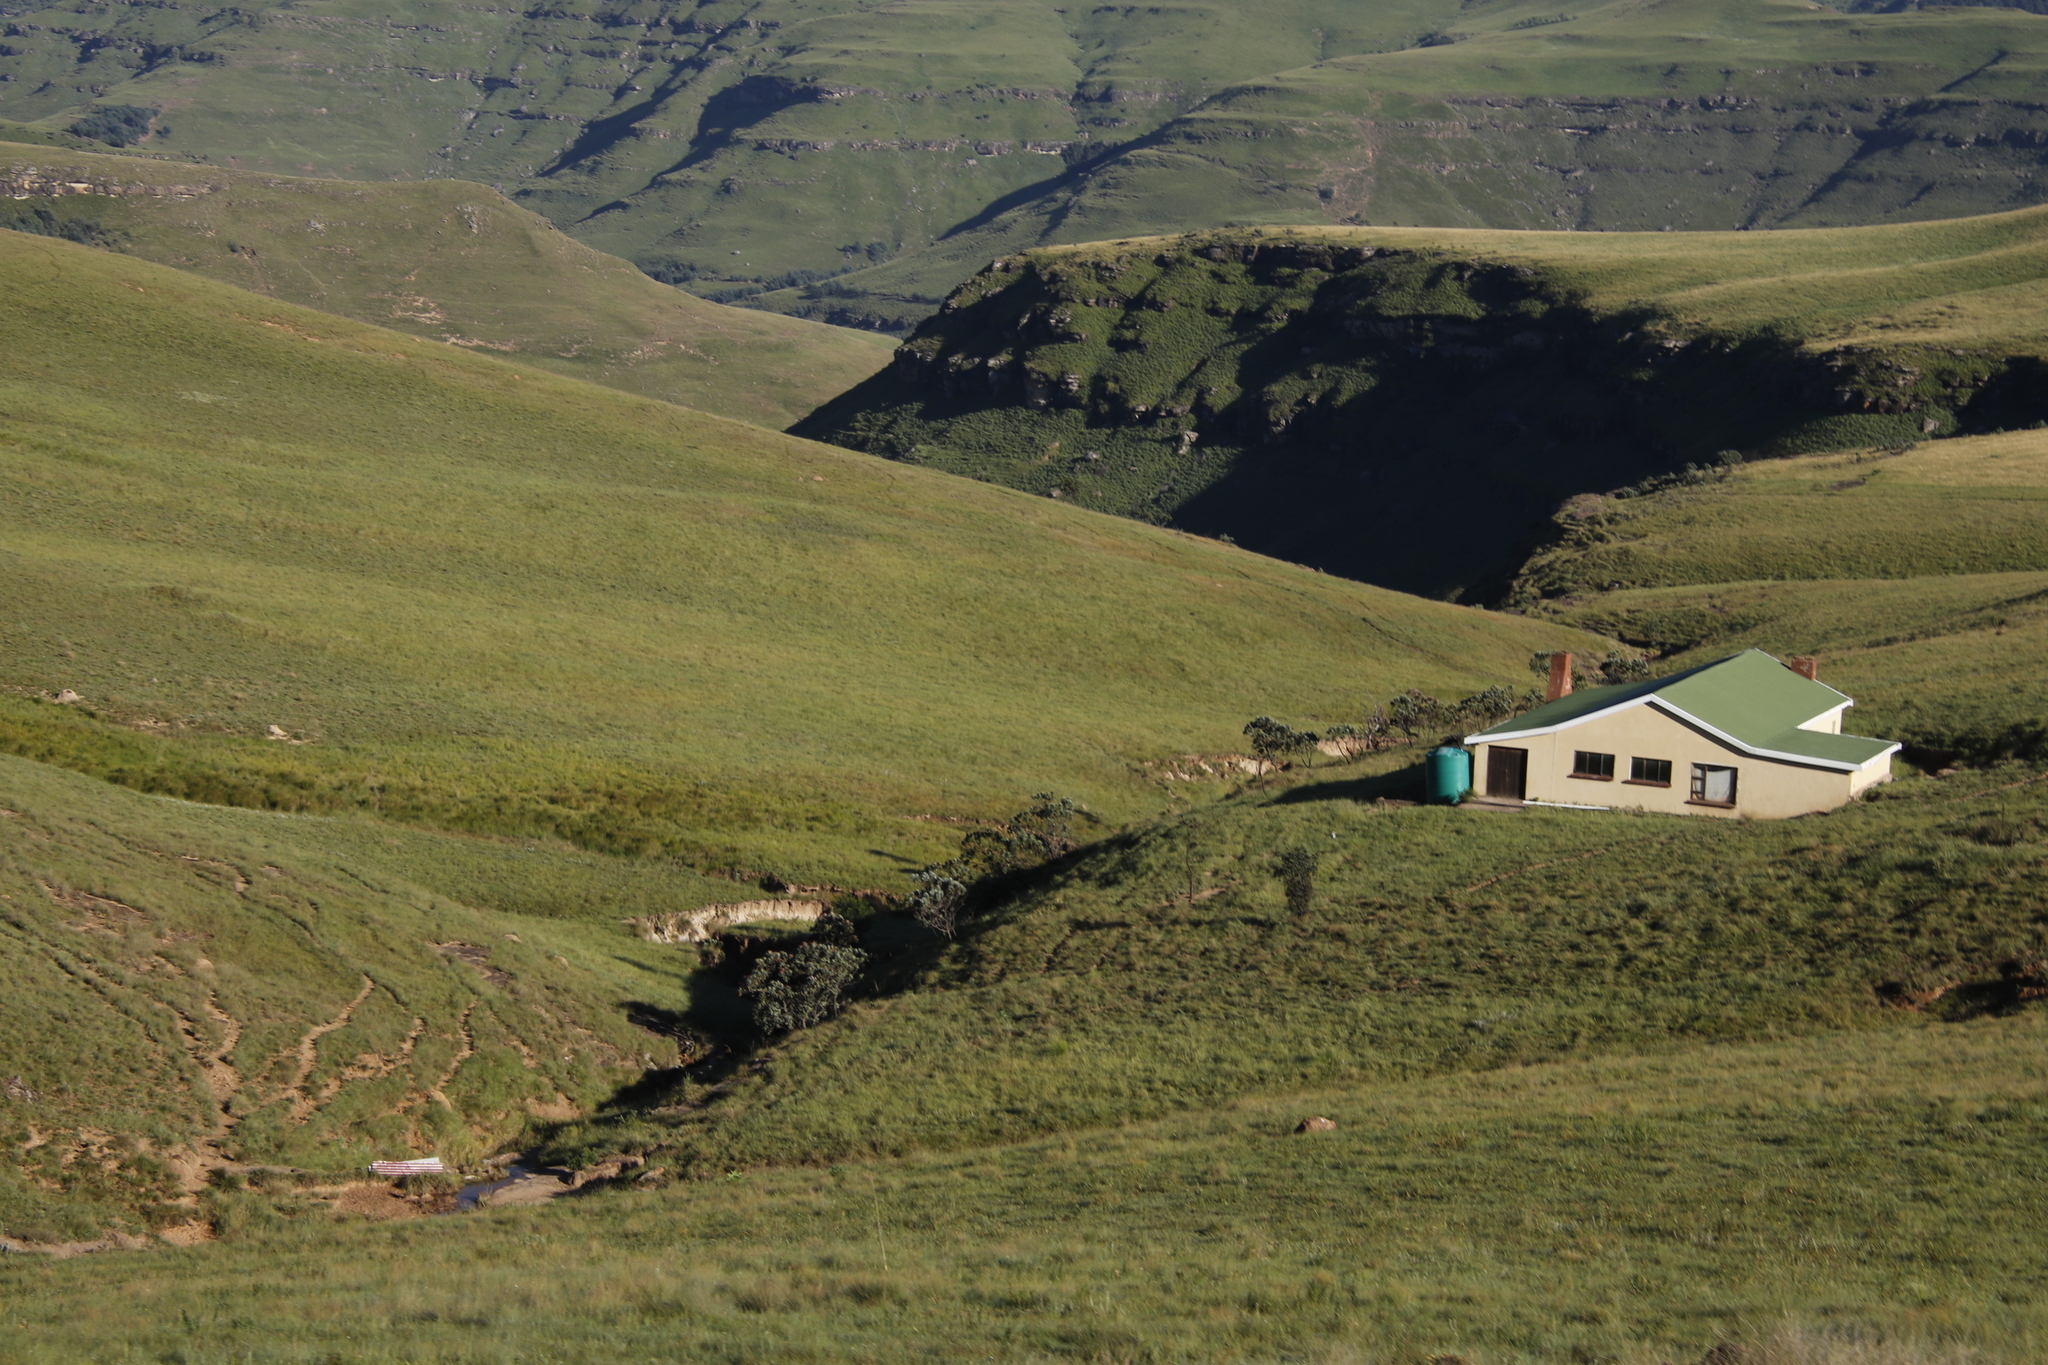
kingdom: Plantae
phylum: Tracheophyta
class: Magnoliopsida
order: Proteales
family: Proteaceae
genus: Protea
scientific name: Protea roupelliae
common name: Silver sugarbush
